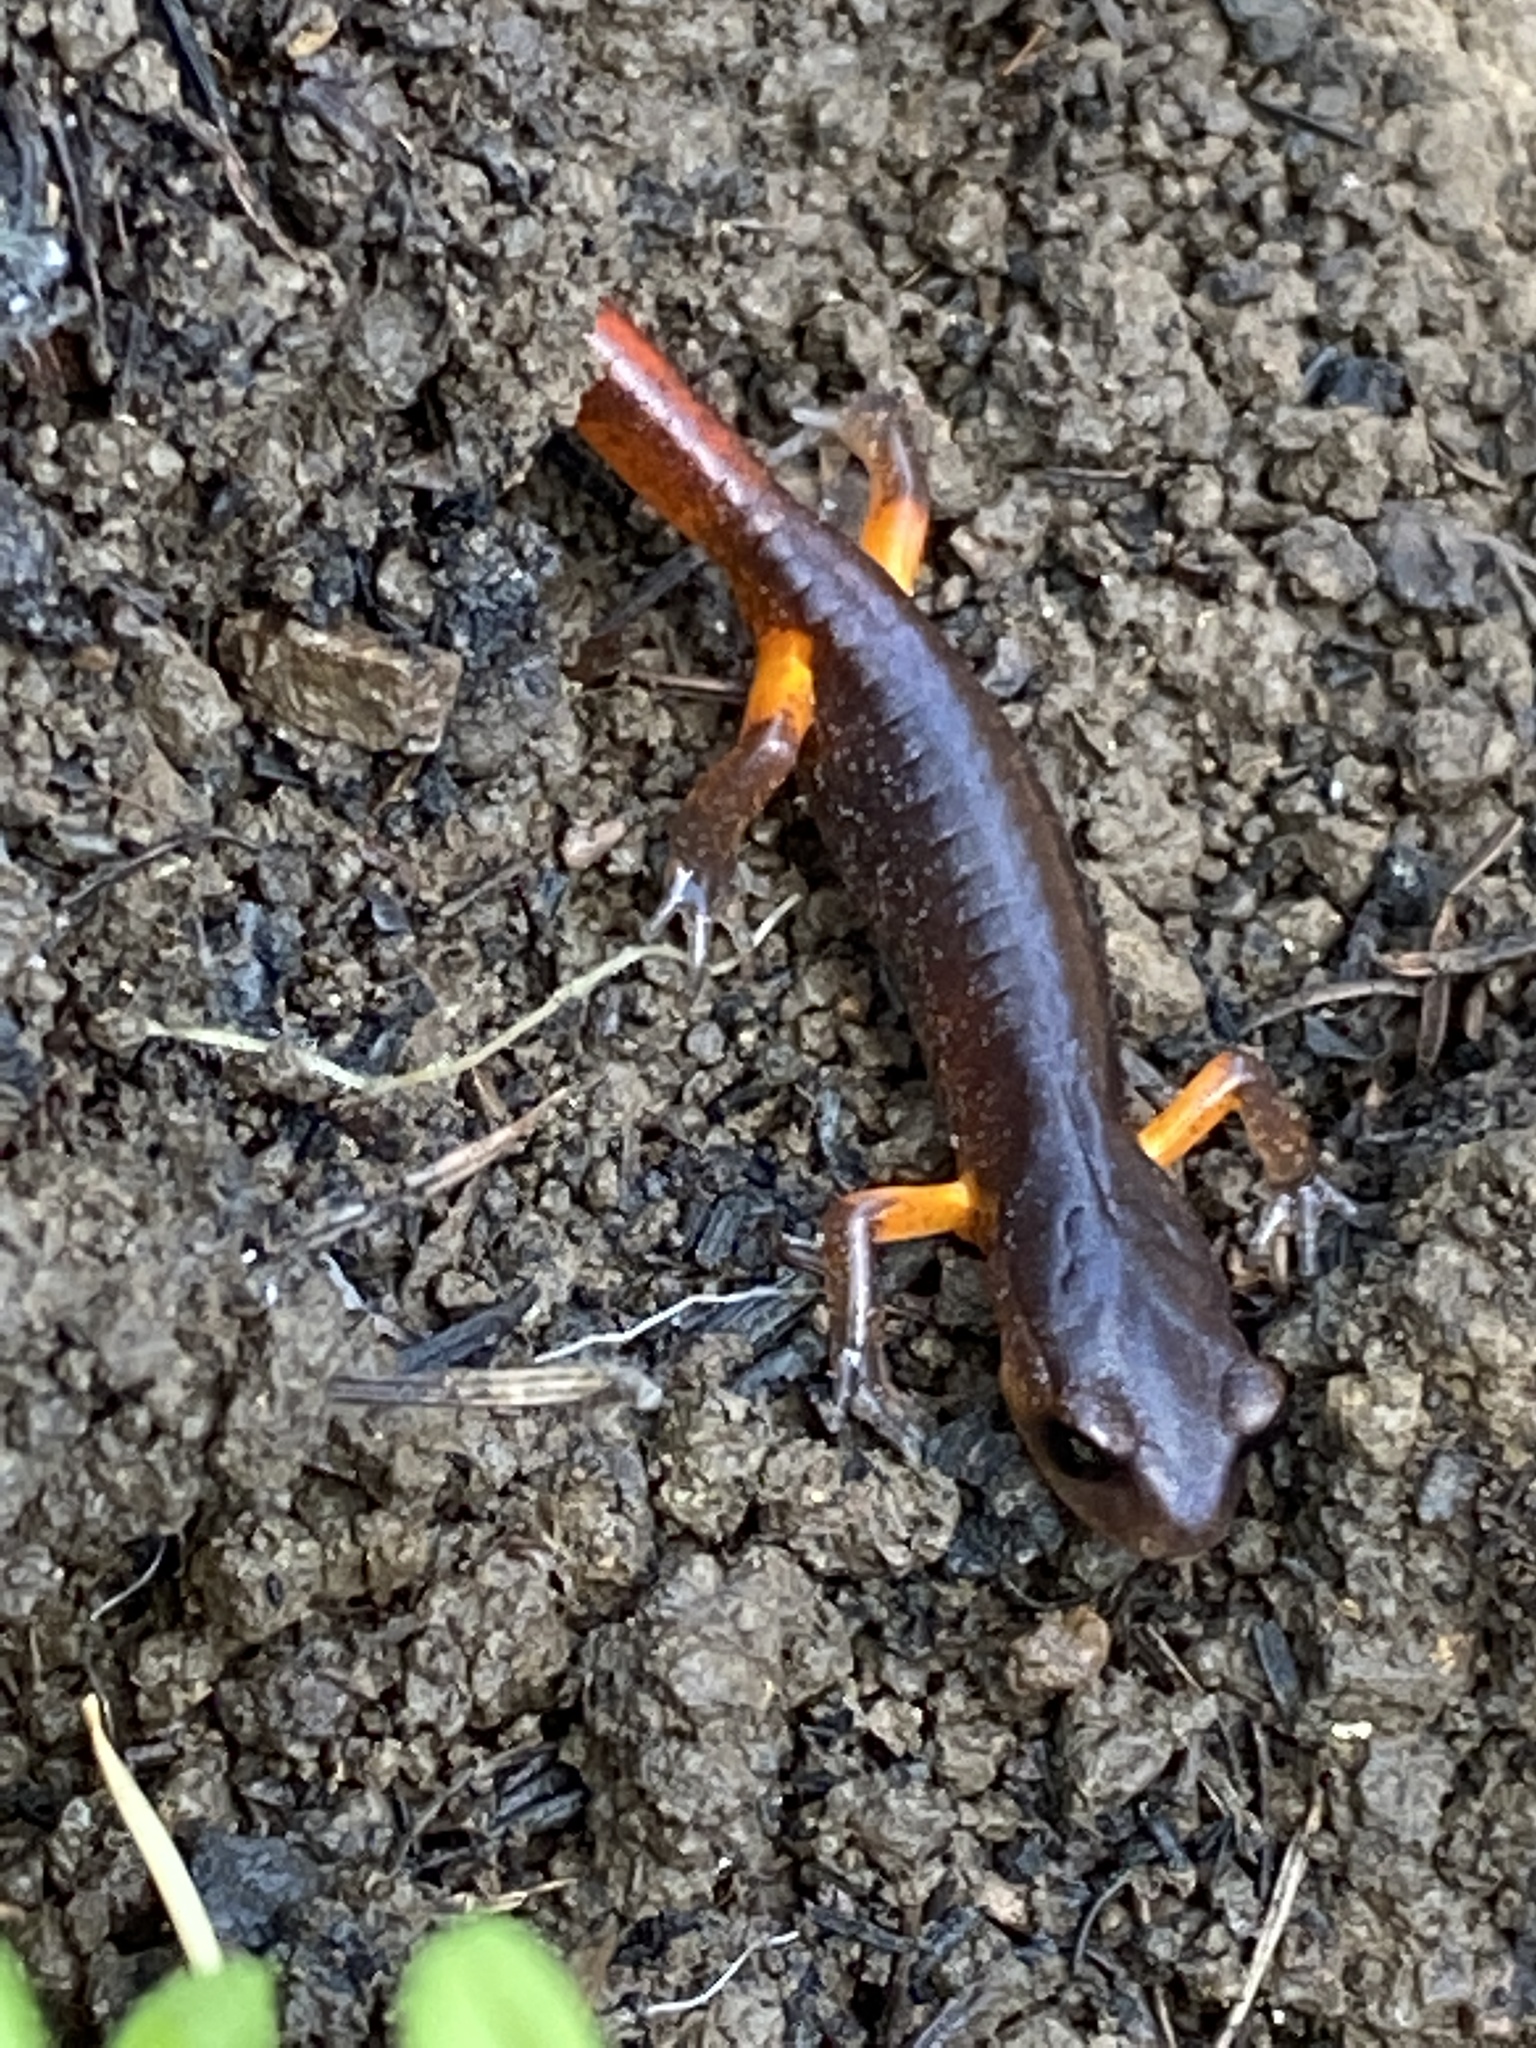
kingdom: Animalia
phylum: Chordata
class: Amphibia
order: Caudata
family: Plethodontidae
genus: Ensatina
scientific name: Ensatina eschscholtzii
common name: Ensatina
